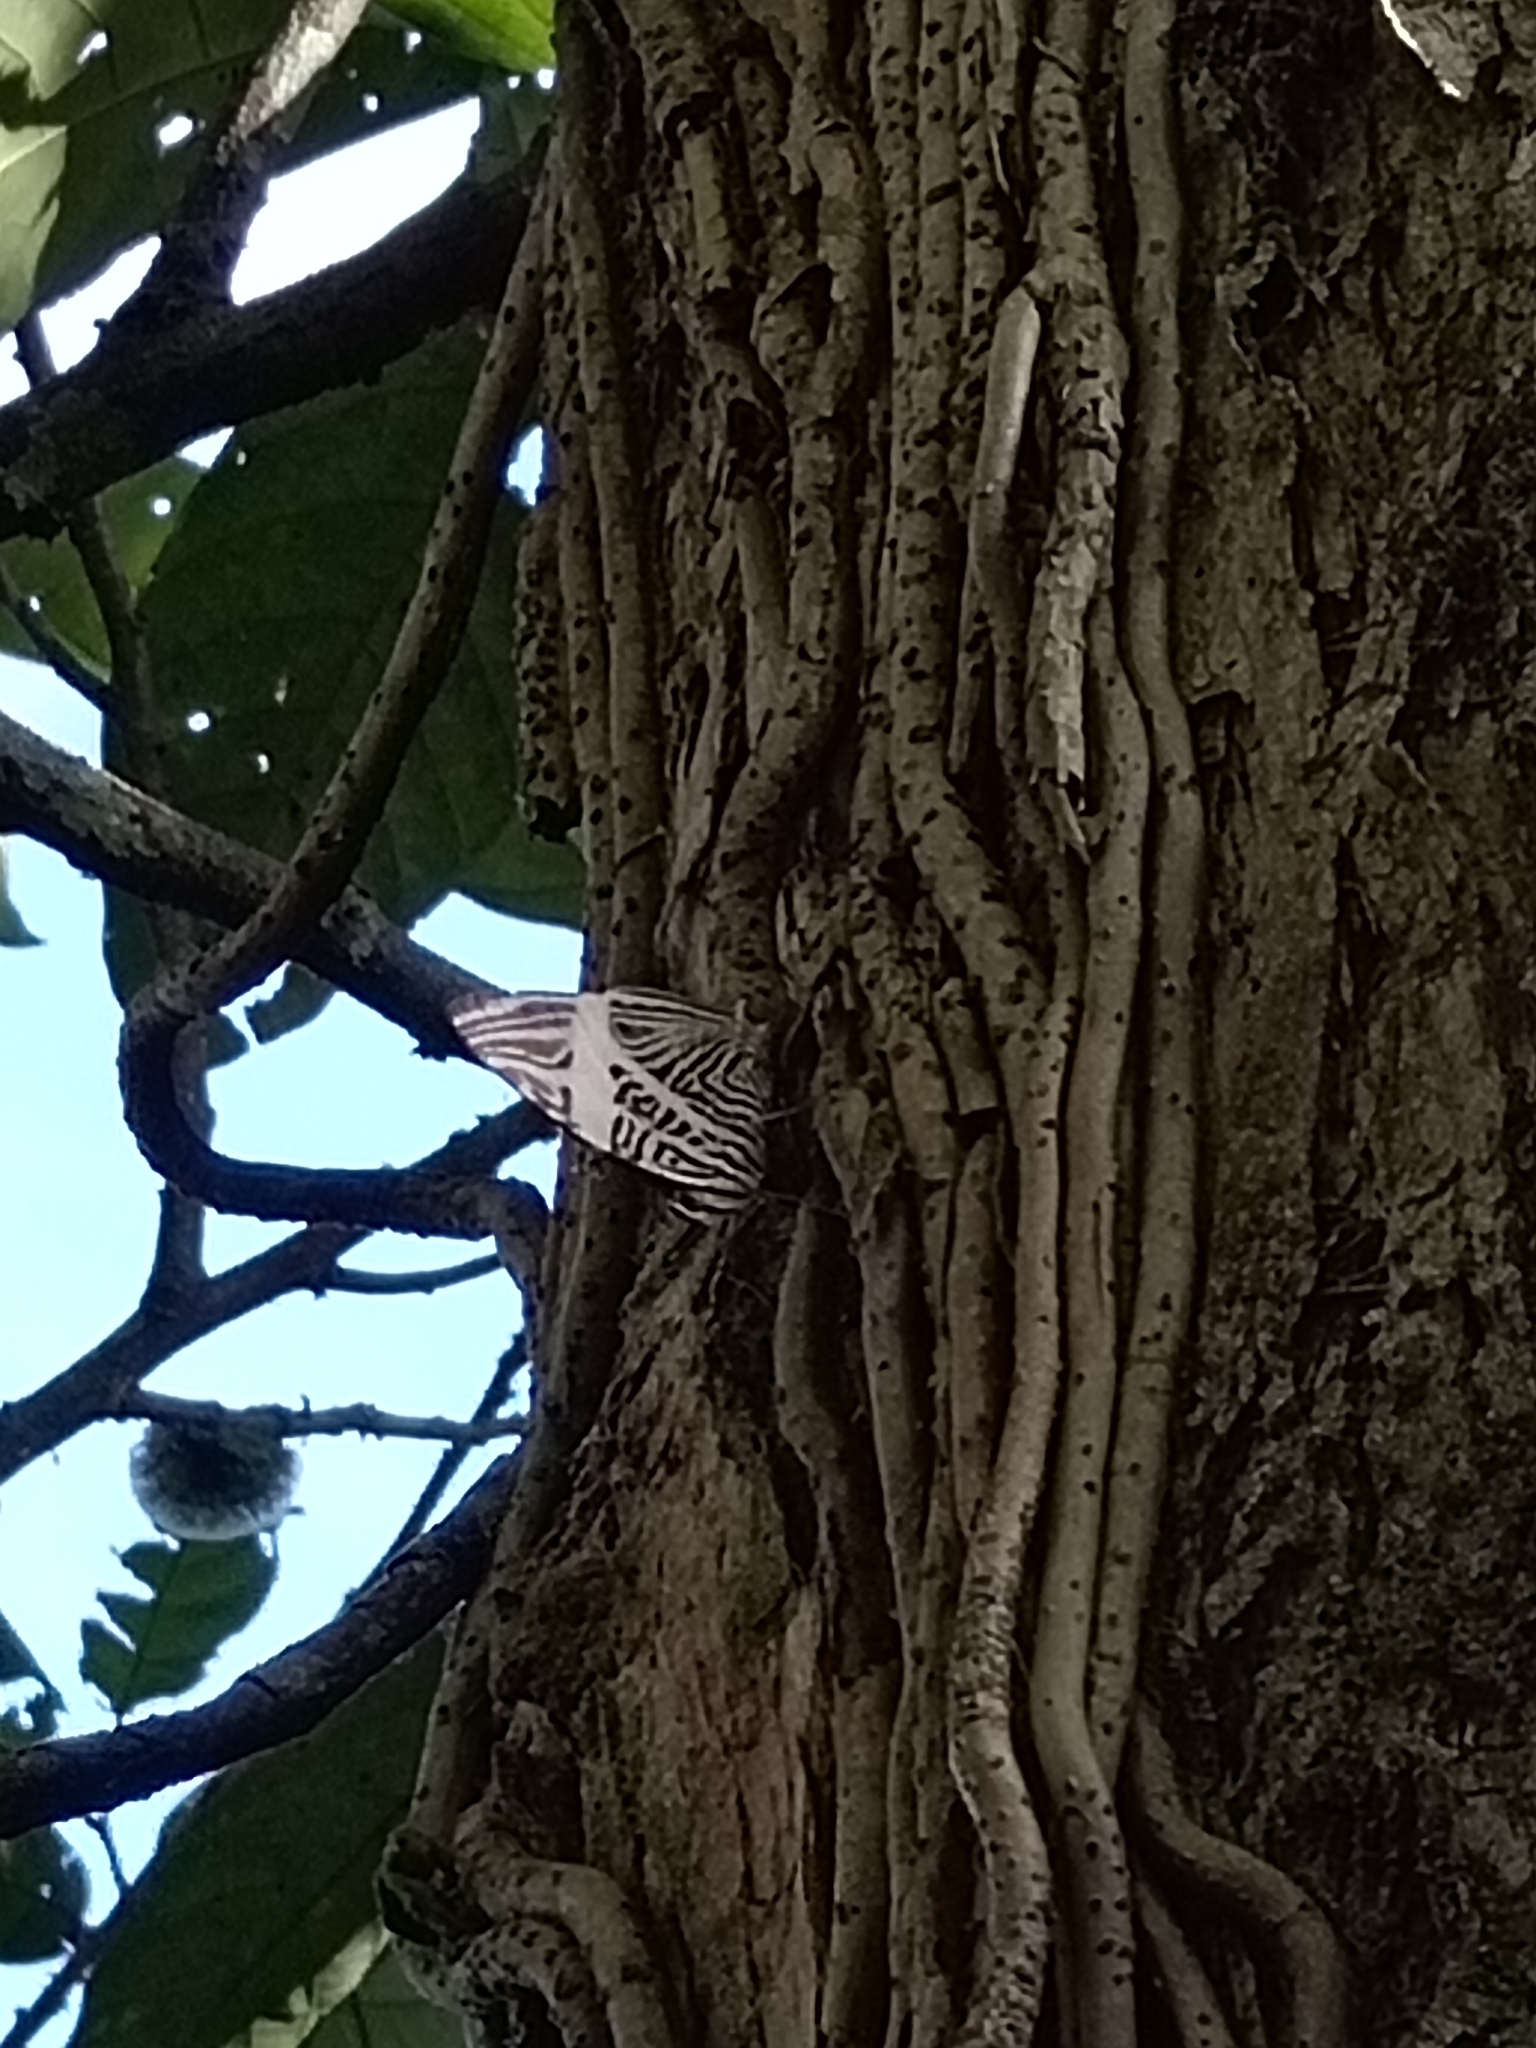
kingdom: Animalia
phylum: Arthropoda
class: Insecta
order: Lepidoptera
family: Nymphalidae
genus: Colobura
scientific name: Colobura dirce
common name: Dirce beauty
